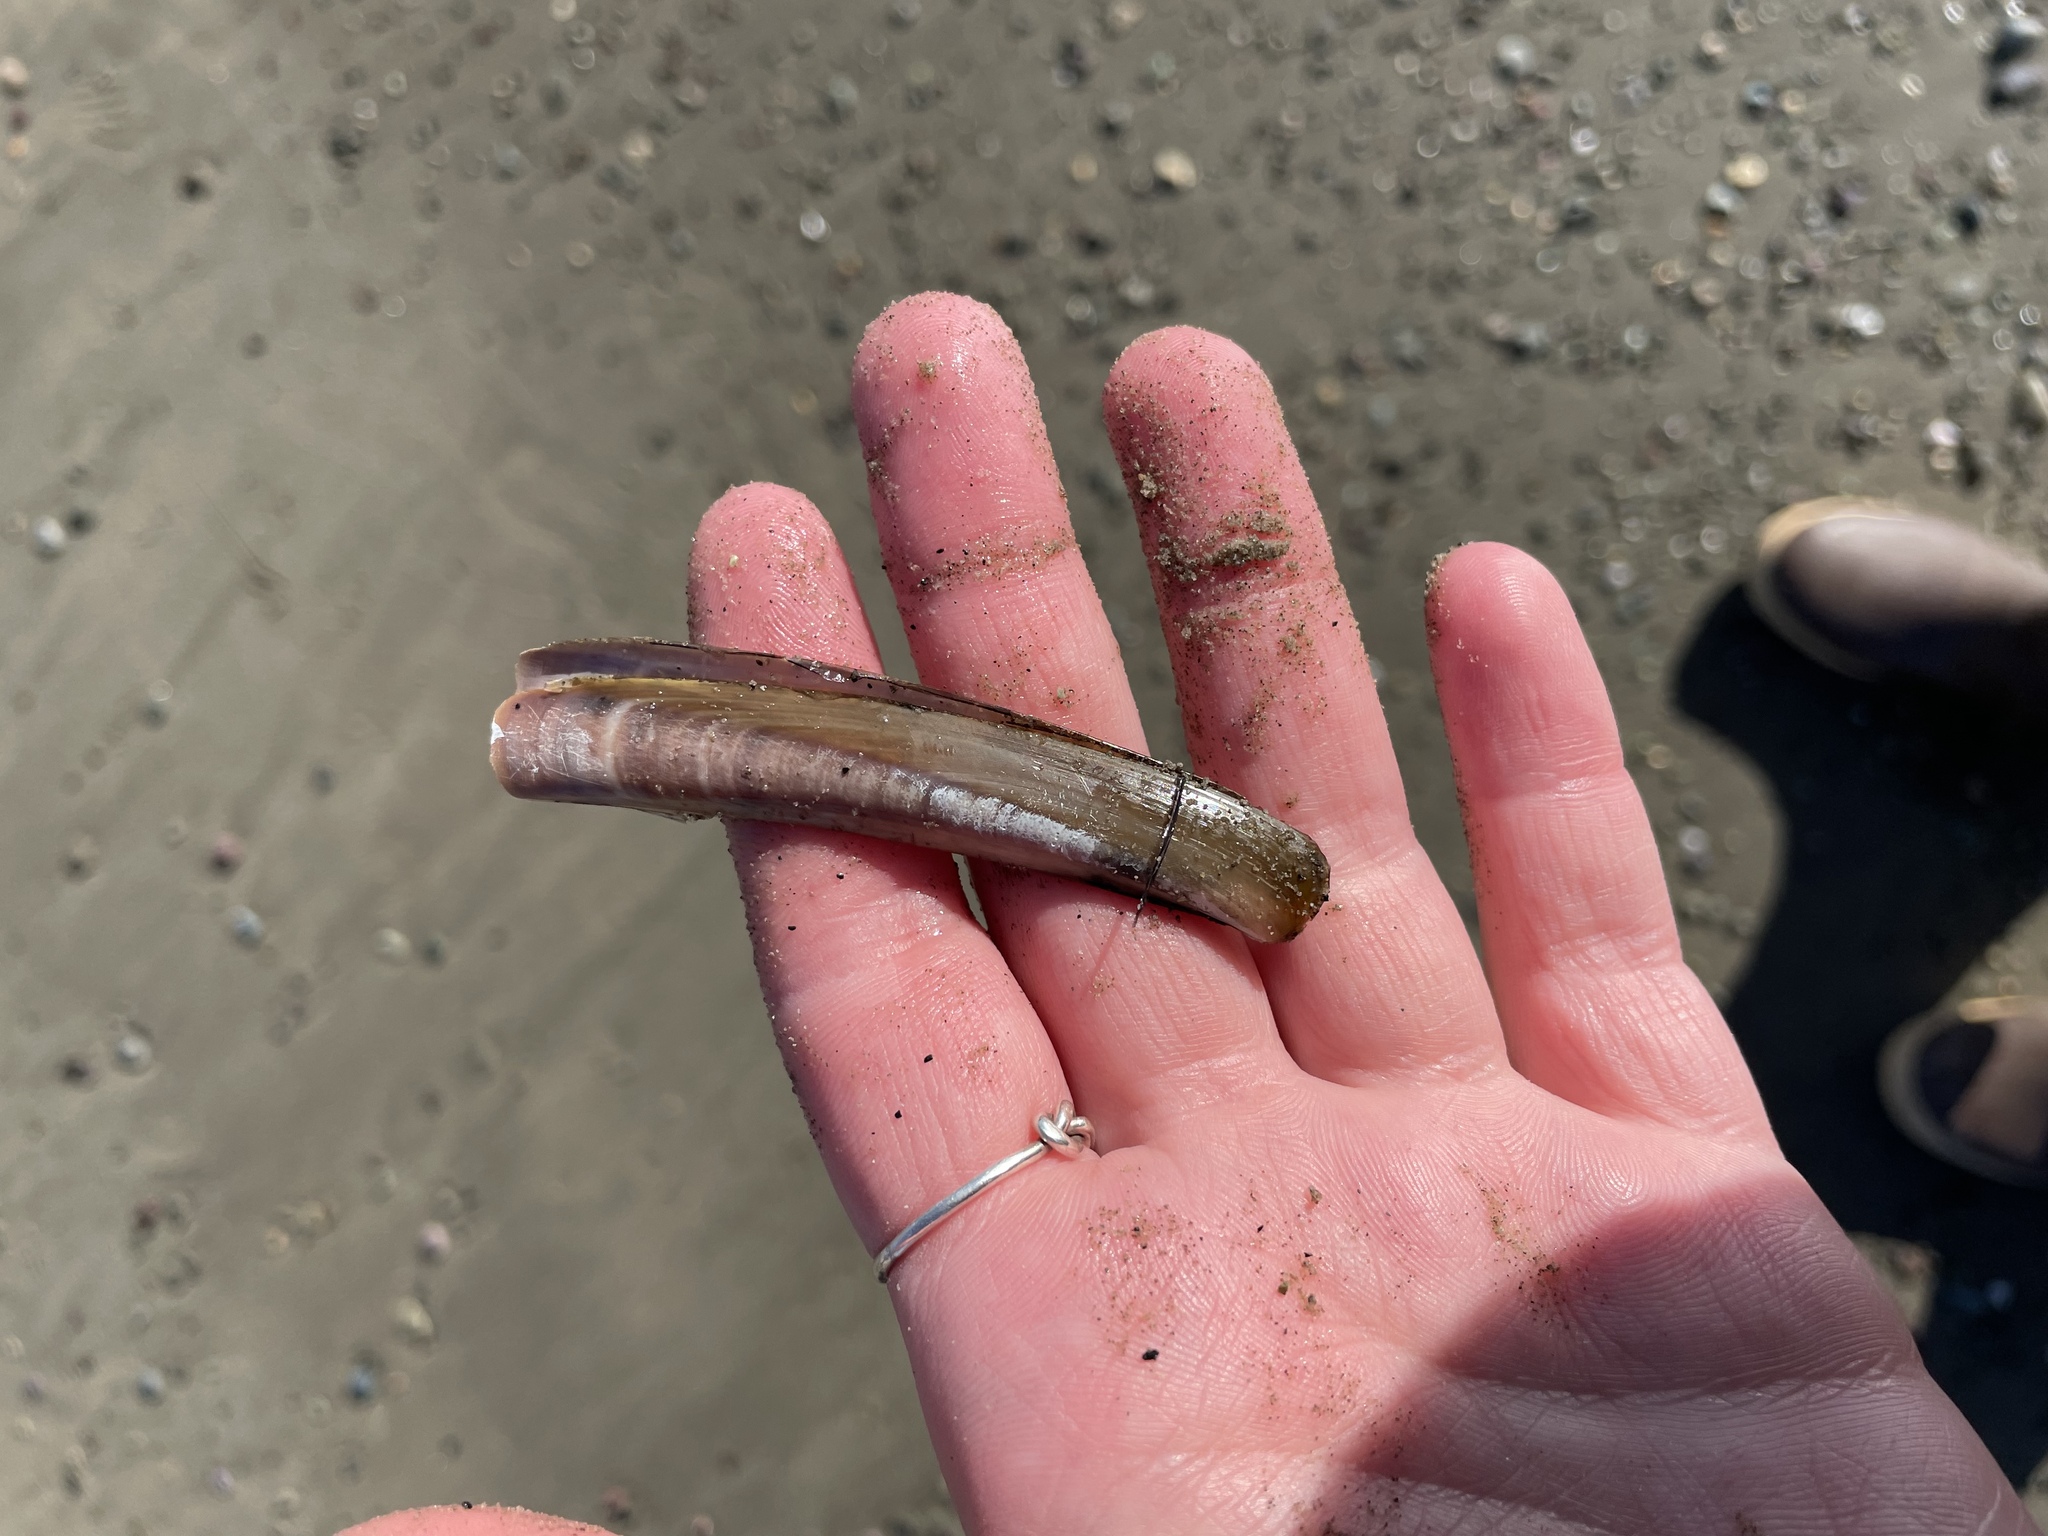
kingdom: Animalia
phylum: Mollusca
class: Bivalvia
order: Adapedonta
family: Pharidae
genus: Ensis
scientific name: Ensis leei
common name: American jack knife clam
